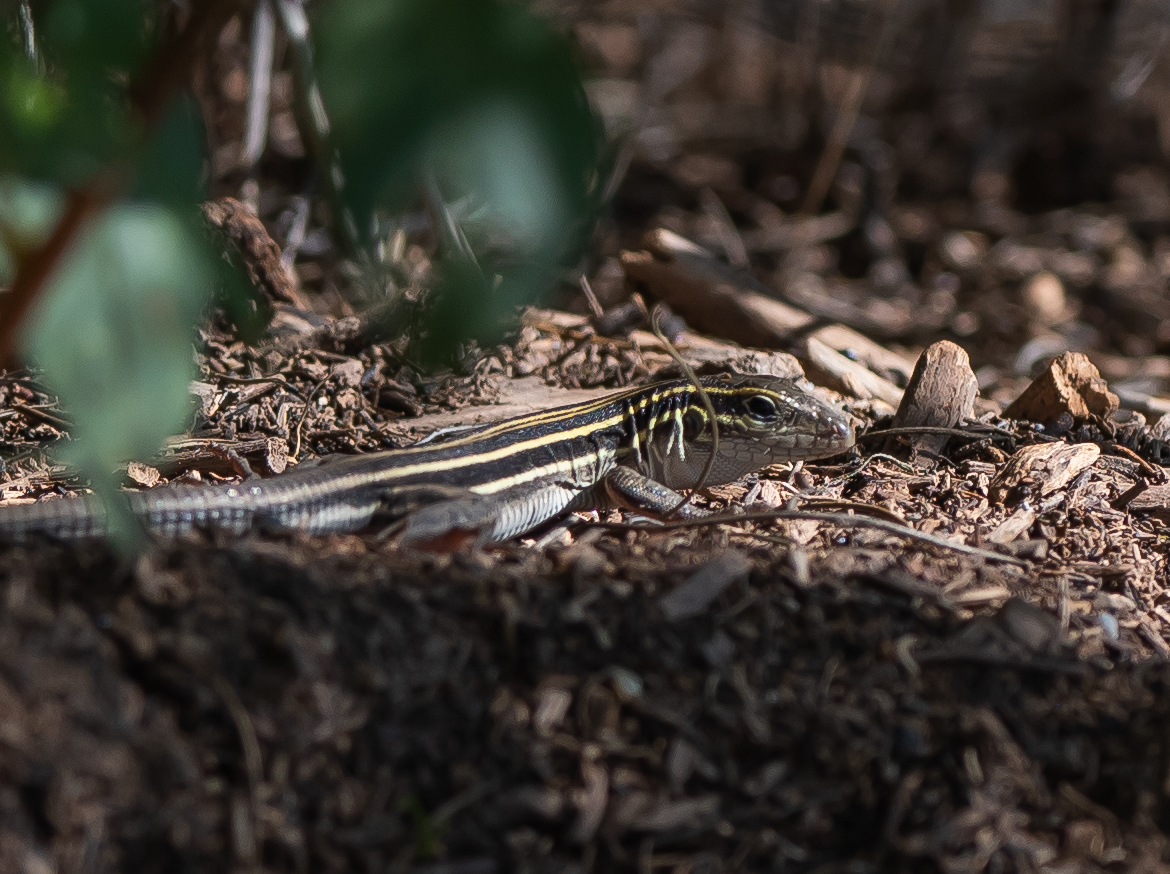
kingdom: Animalia
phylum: Chordata
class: Squamata
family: Teiidae
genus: Aspidoscelis
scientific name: Aspidoscelis uniparens
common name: Desert grassland whiptail
